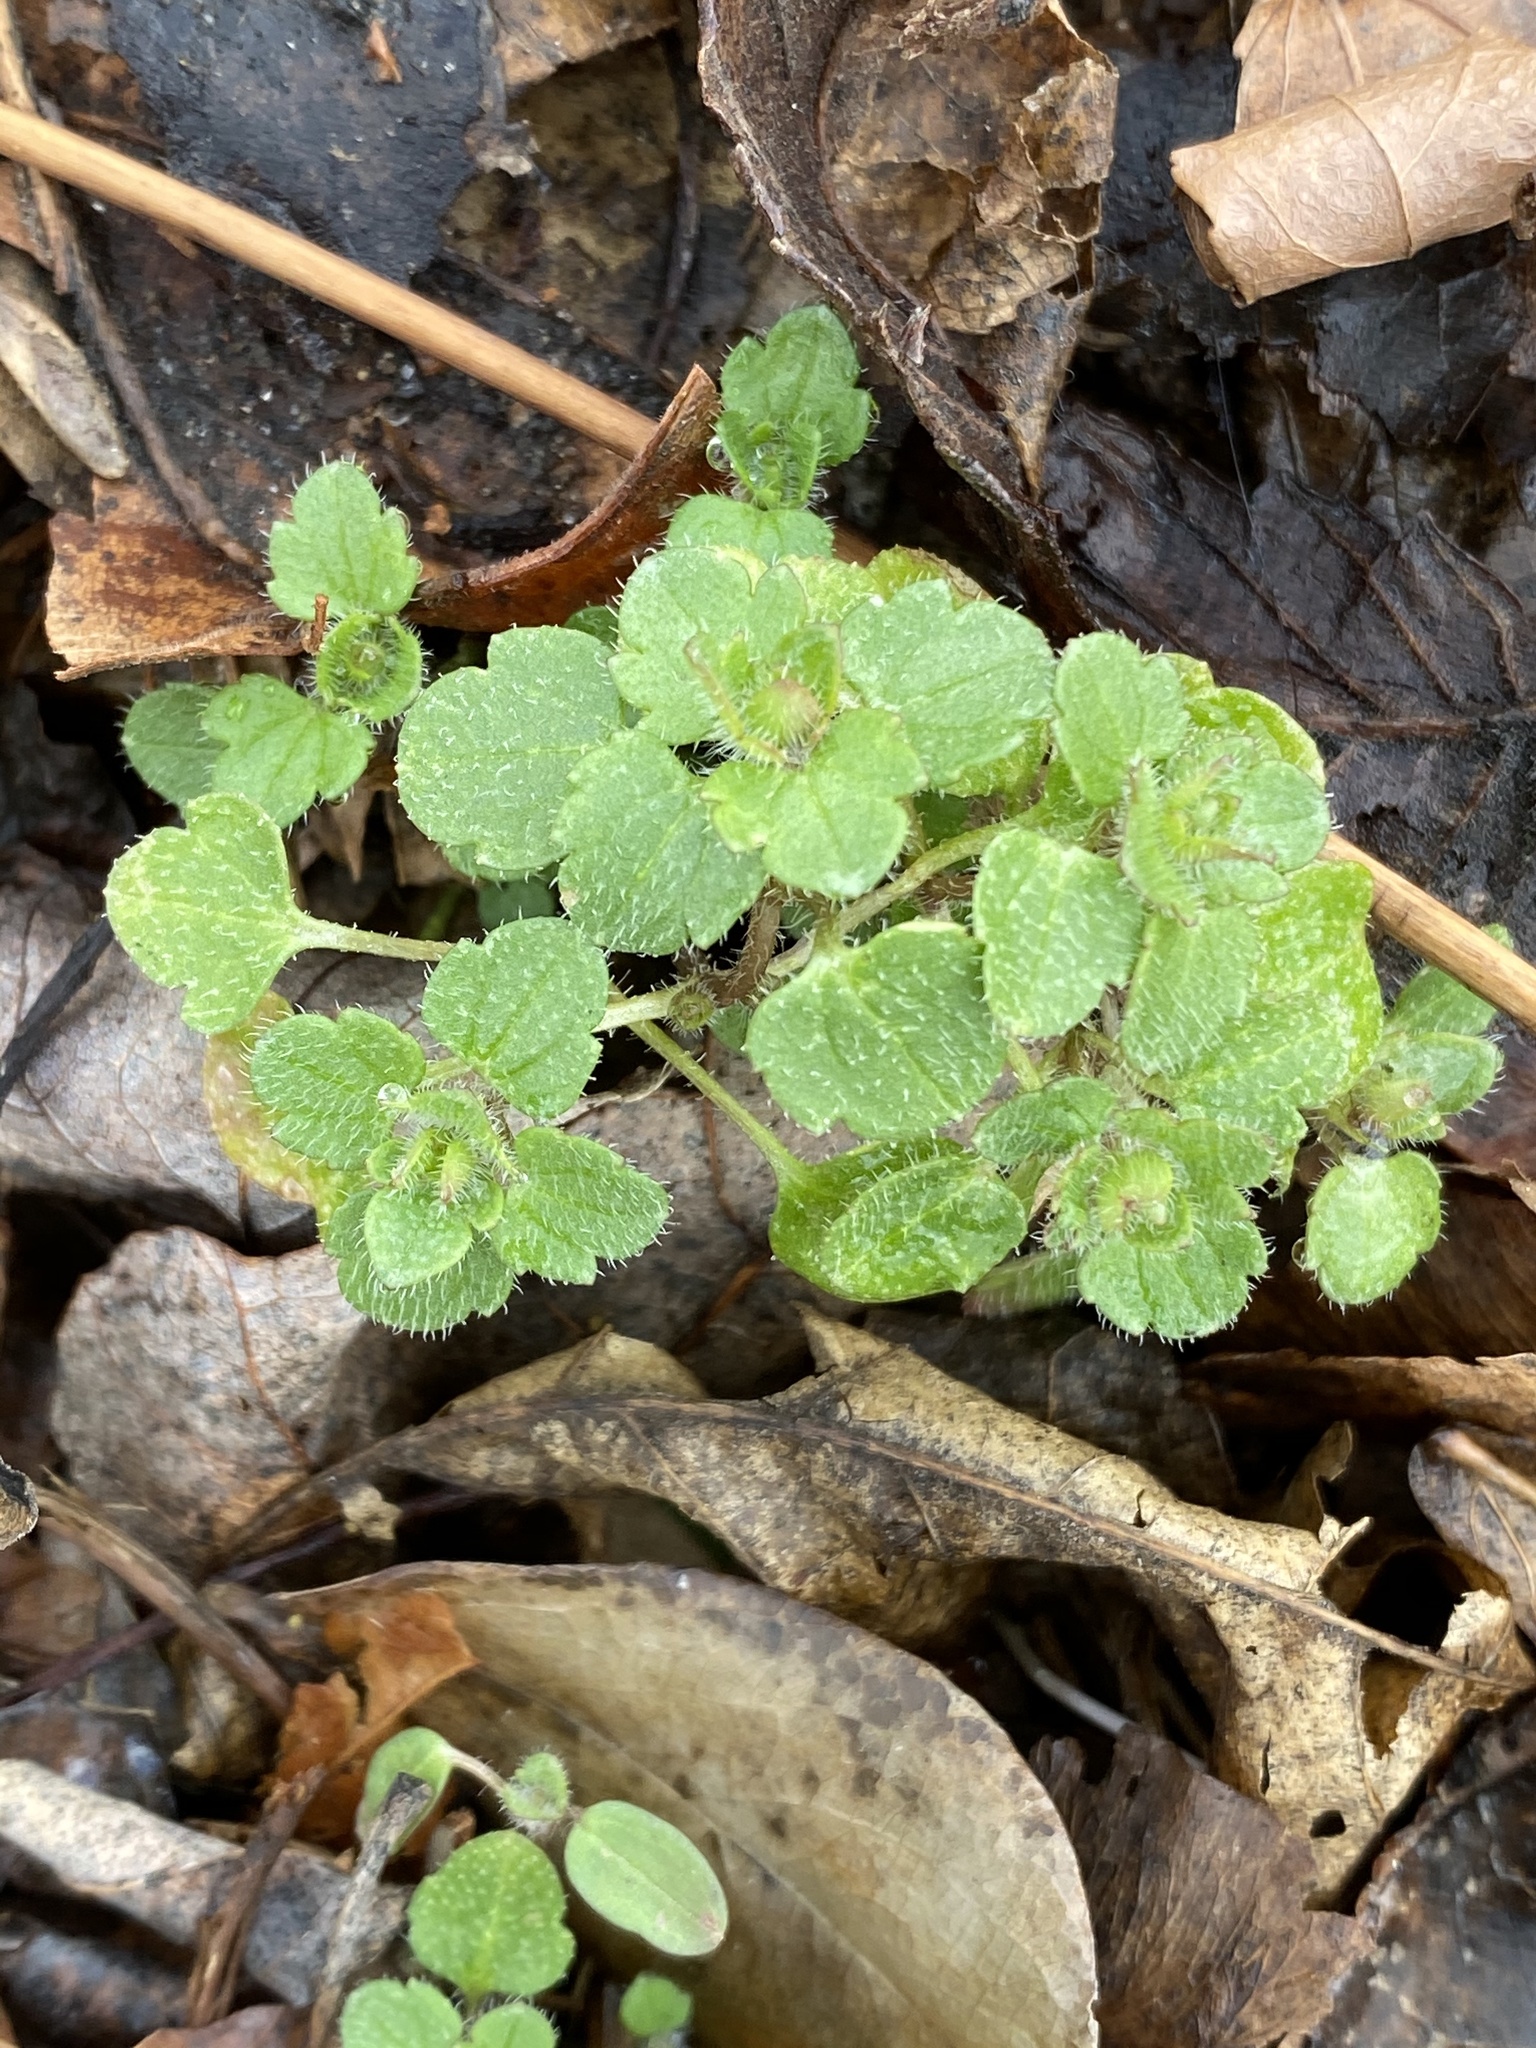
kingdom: Plantae
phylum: Tracheophyta
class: Magnoliopsida
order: Lamiales
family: Plantaginaceae
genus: Veronica
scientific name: Veronica hederifolia
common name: Ivy-leaved speedwell
